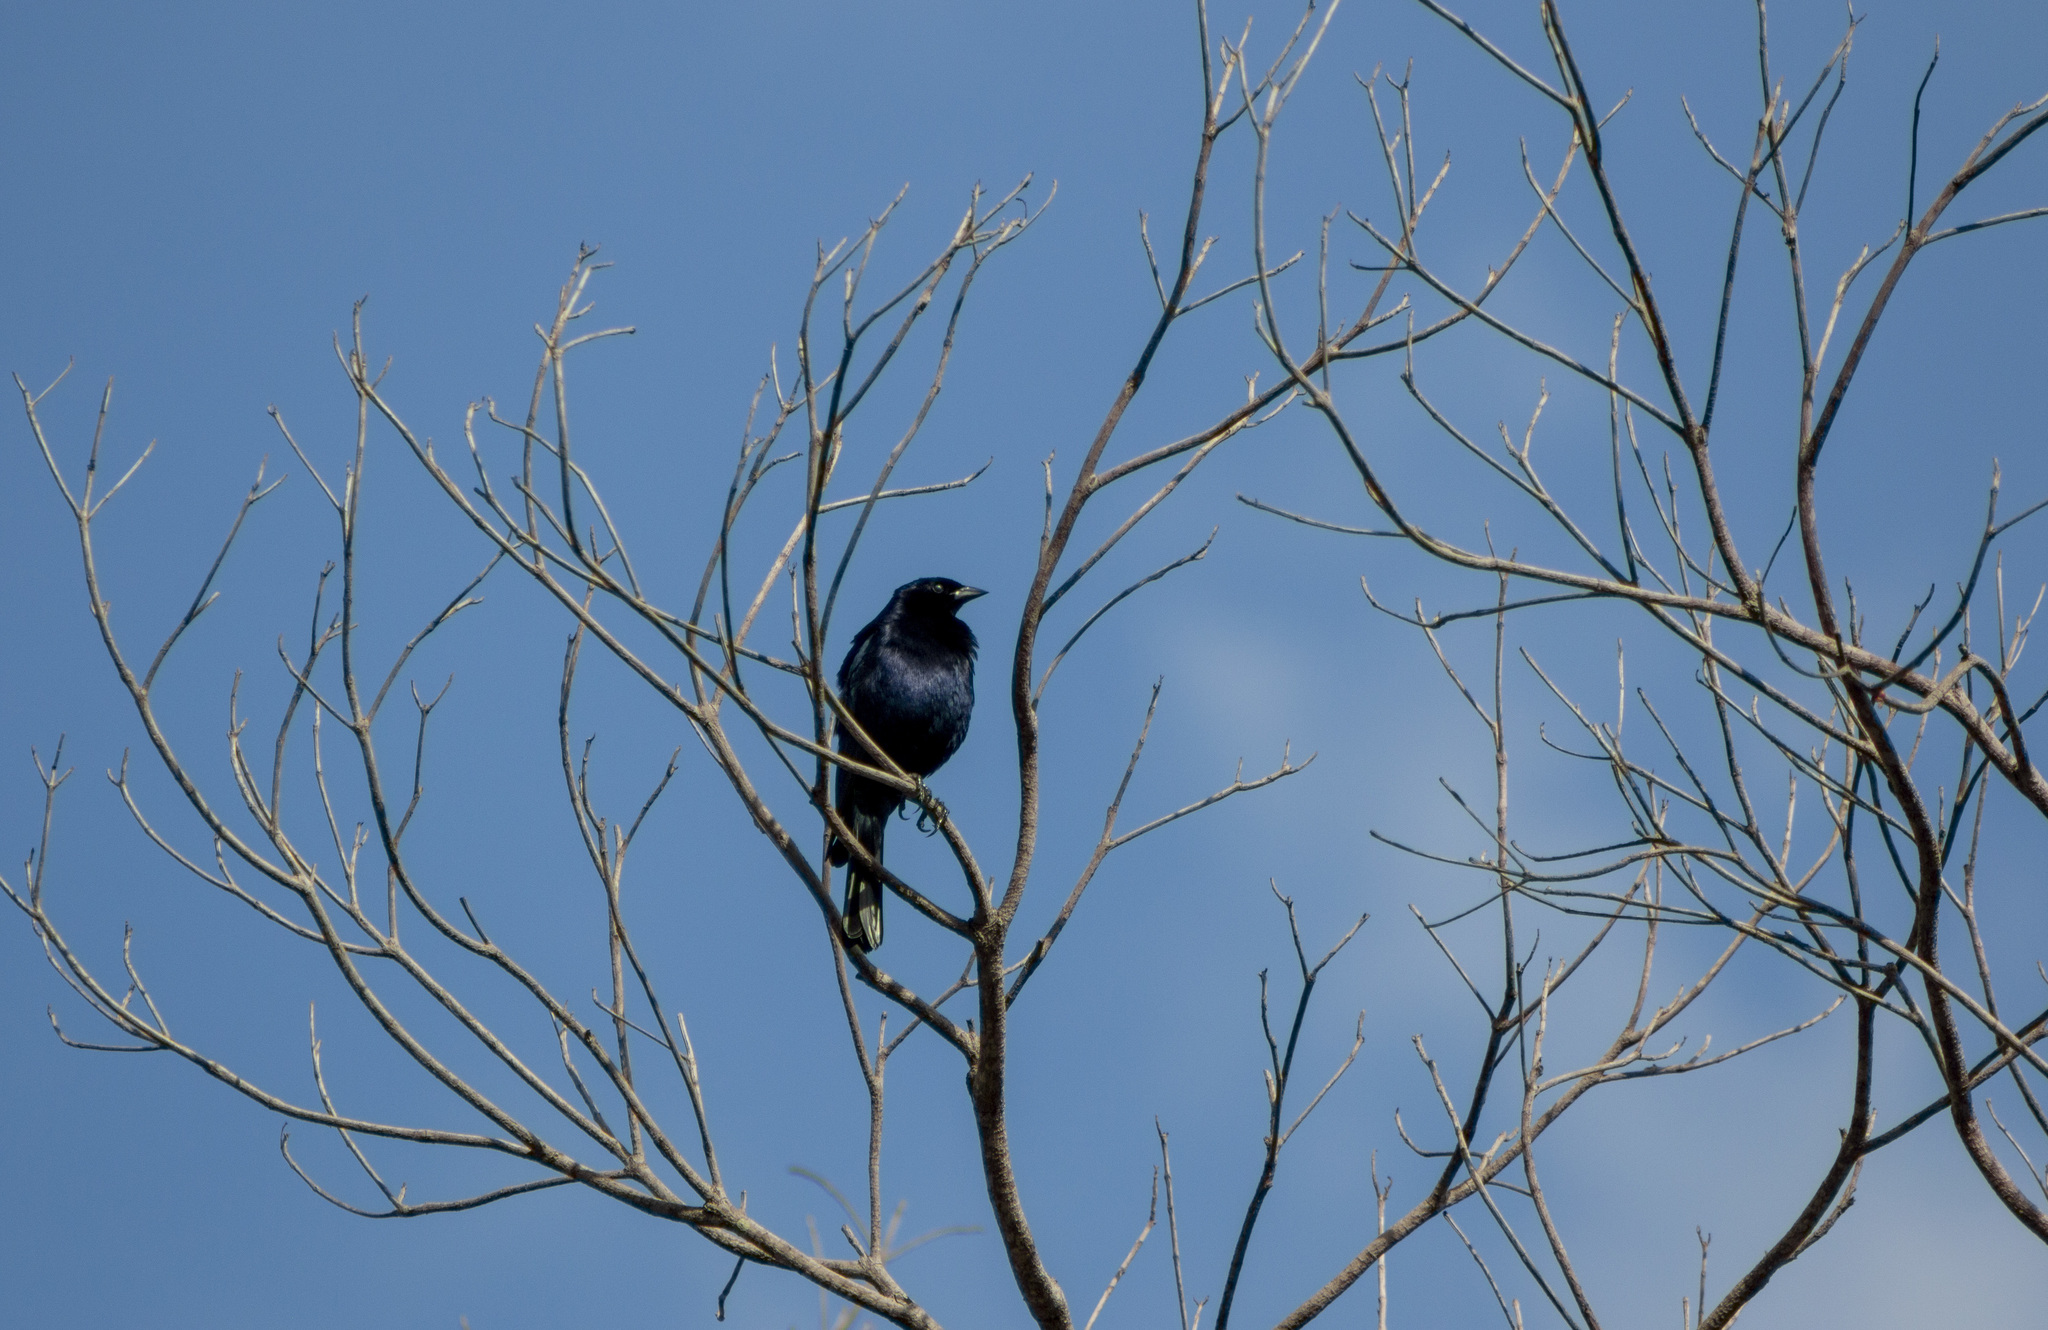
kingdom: Animalia
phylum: Chordata
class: Aves
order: Passeriformes
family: Icteridae
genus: Molothrus
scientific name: Molothrus bonariensis
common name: Shiny cowbird
